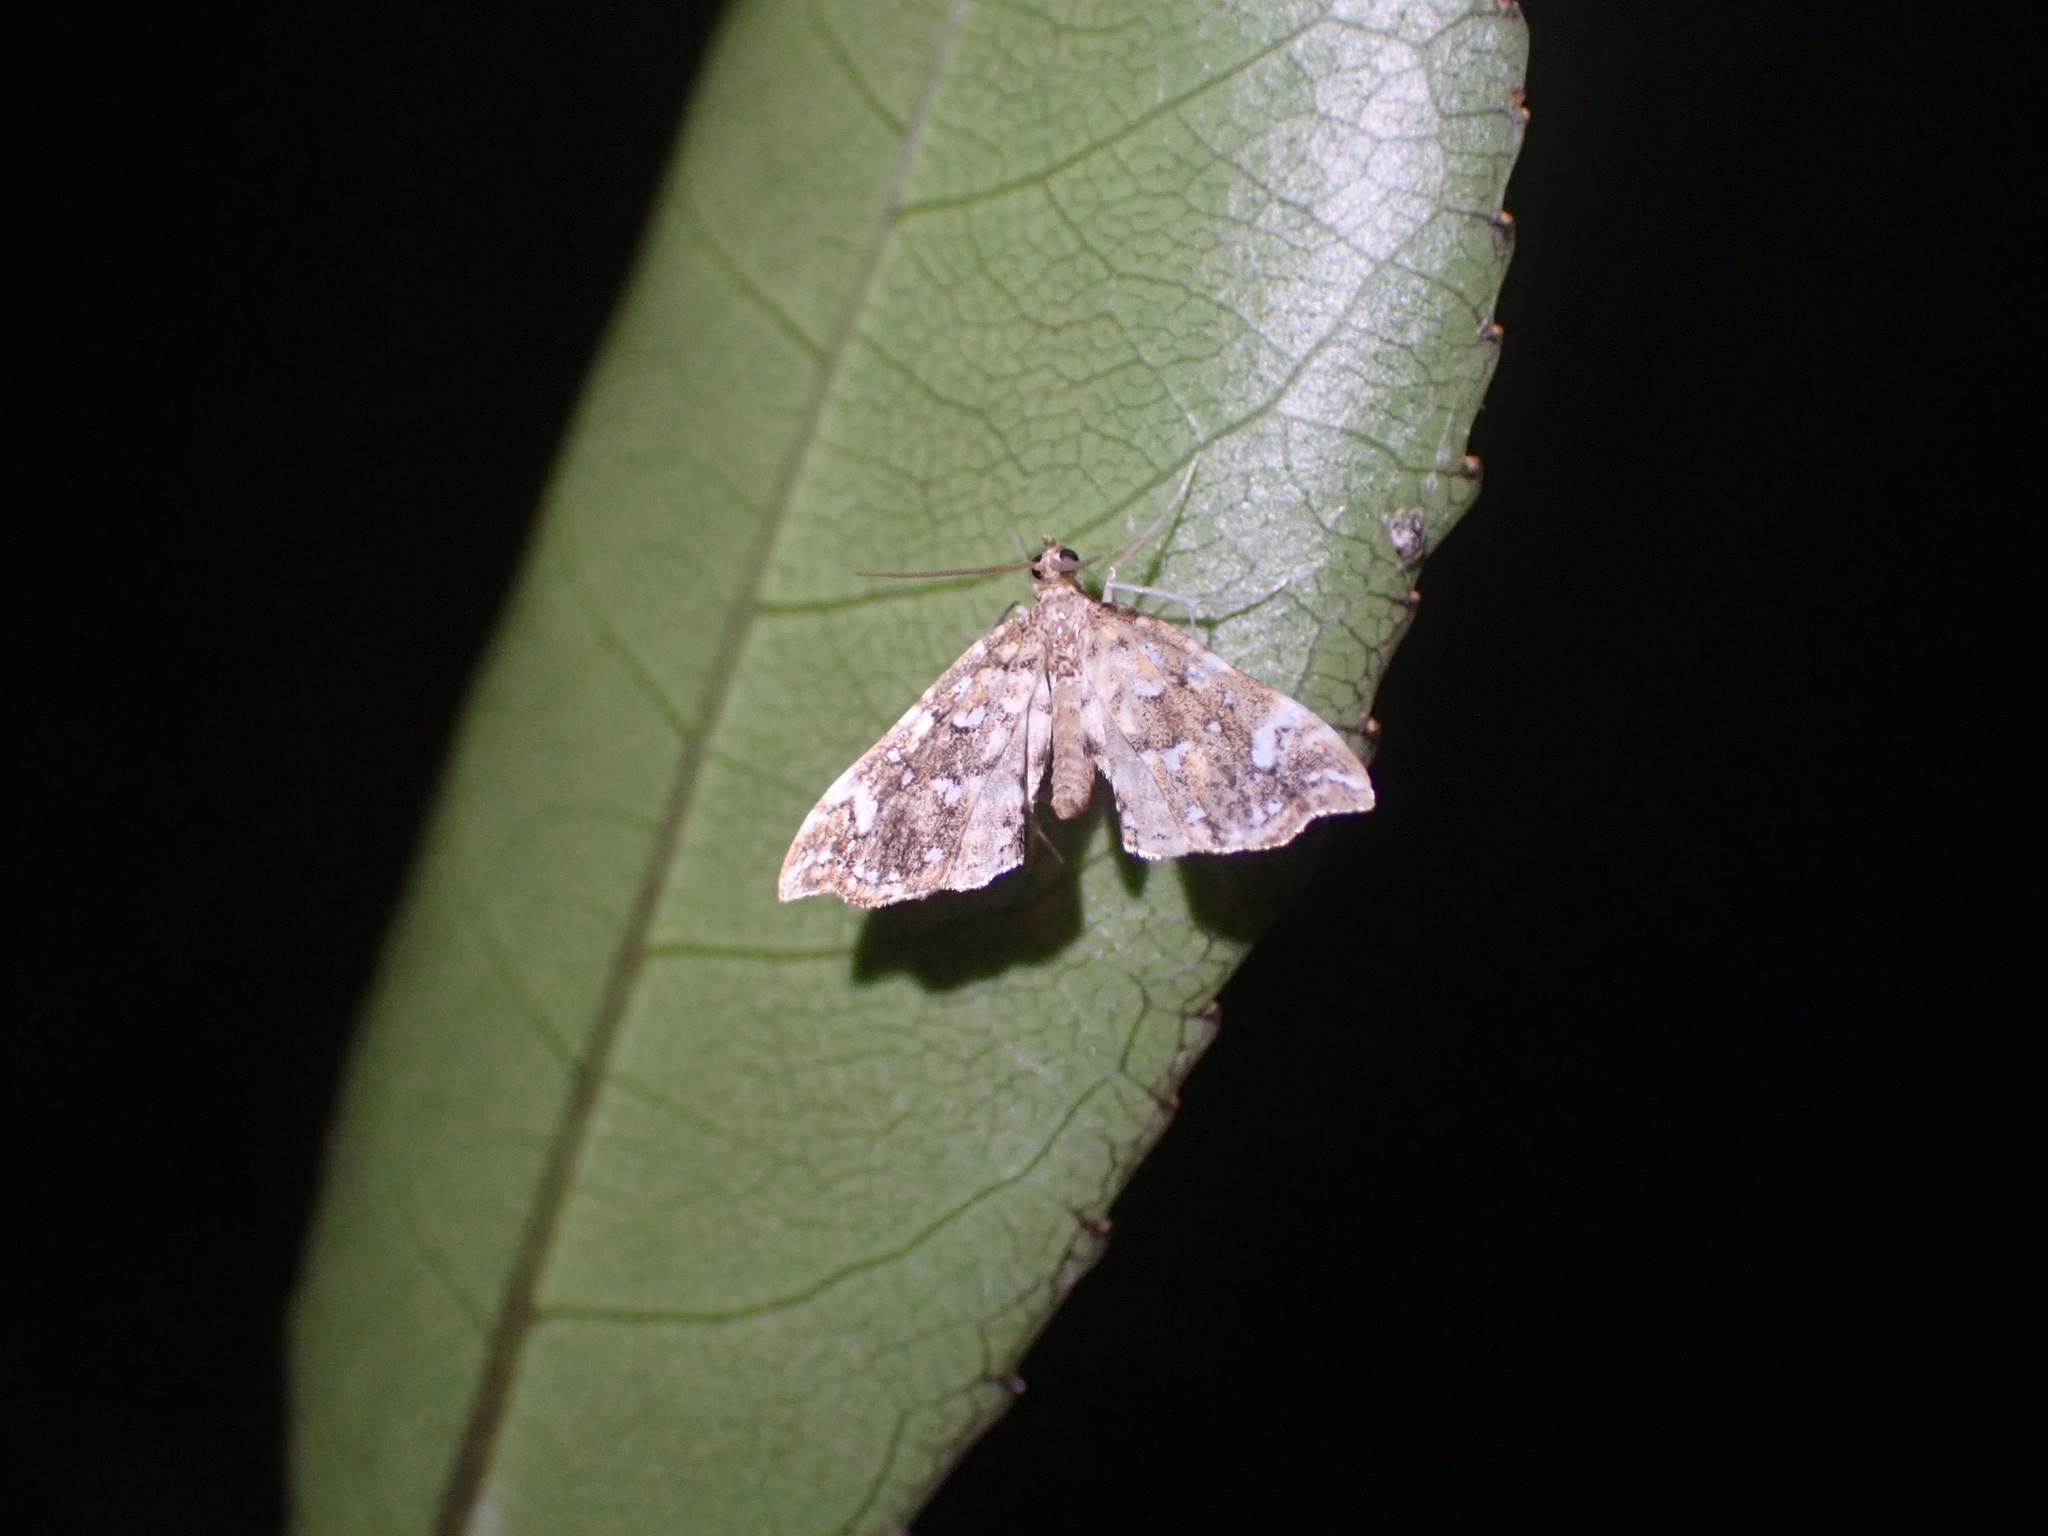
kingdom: Animalia
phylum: Arthropoda
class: Insecta
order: Lepidoptera
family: Pyralidae
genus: Musotima
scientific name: Musotima nitidalis
